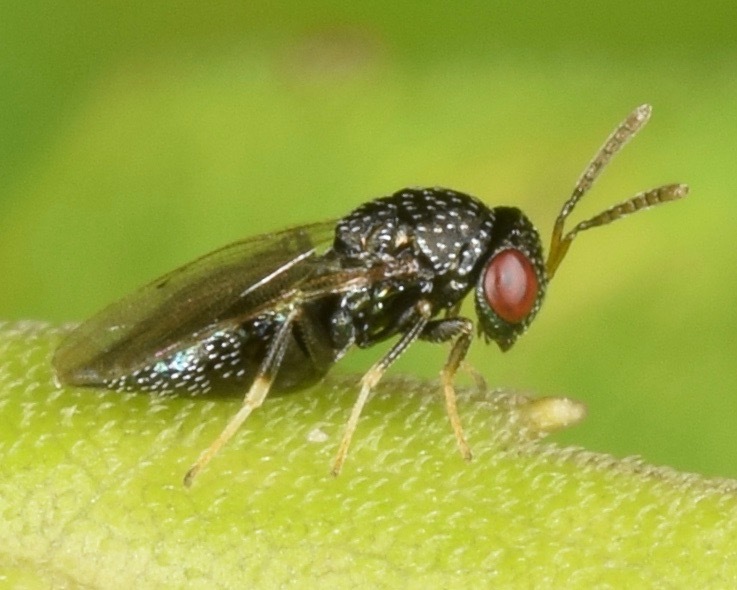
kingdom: Animalia
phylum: Arthropoda
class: Insecta
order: Hymenoptera
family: Pteromalidae
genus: Lyrcus
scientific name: Lyrcus
